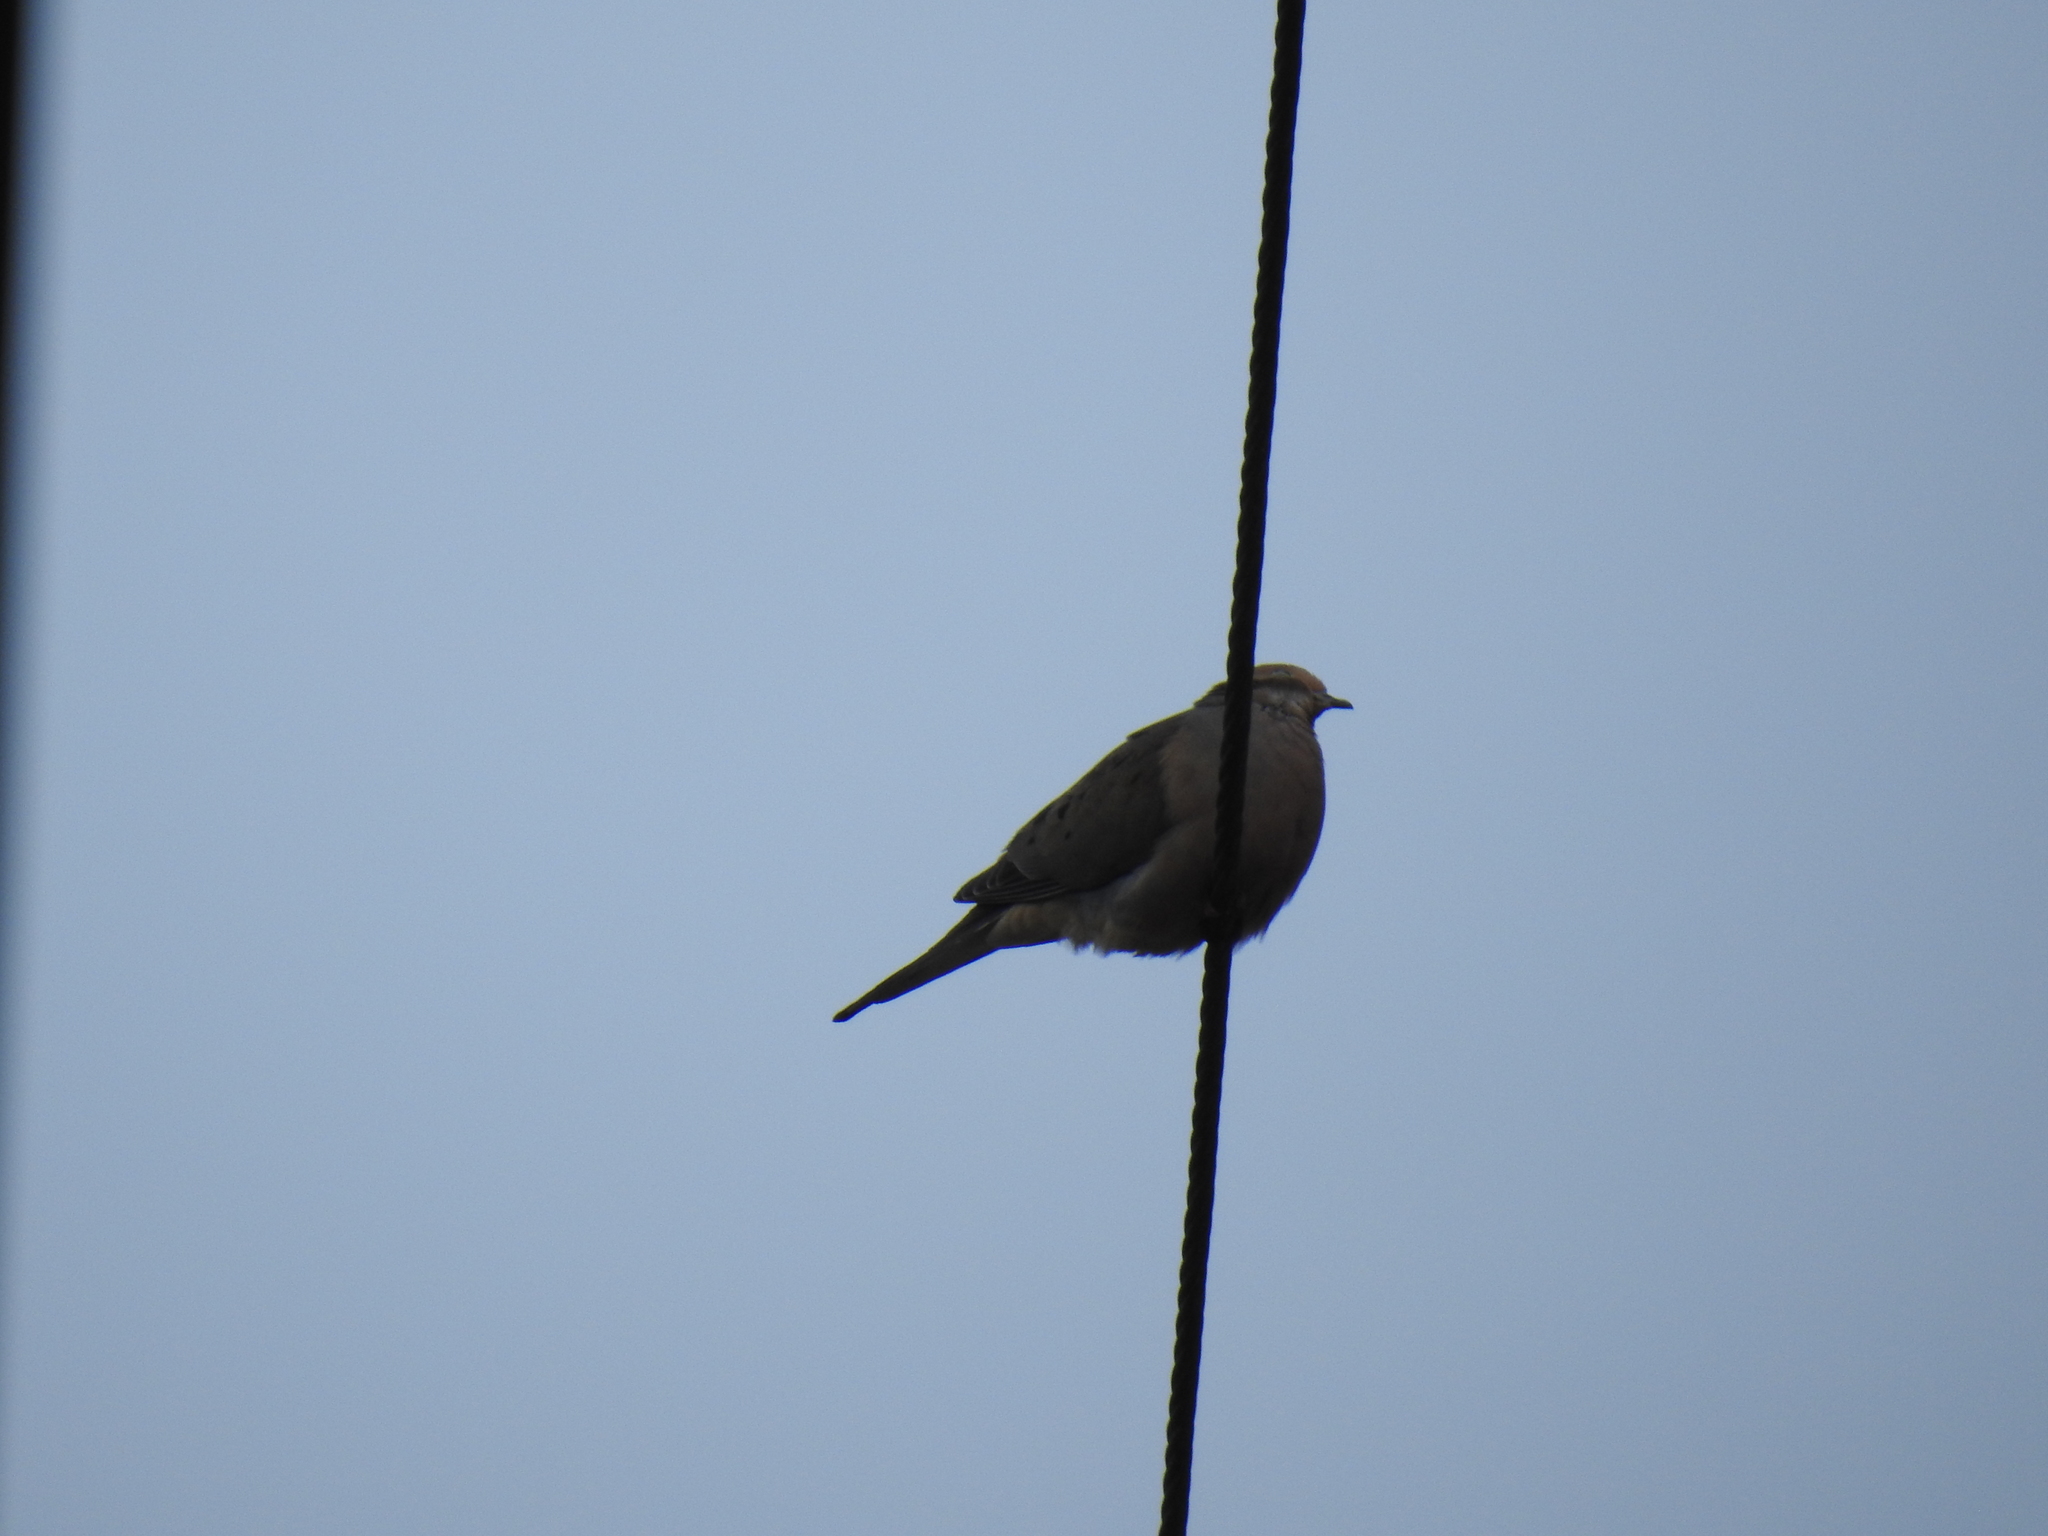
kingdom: Animalia
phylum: Chordata
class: Aves
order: Columbiformes
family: Columbidae
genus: Zenaida
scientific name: Zenaida macroura
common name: Mourning dove
